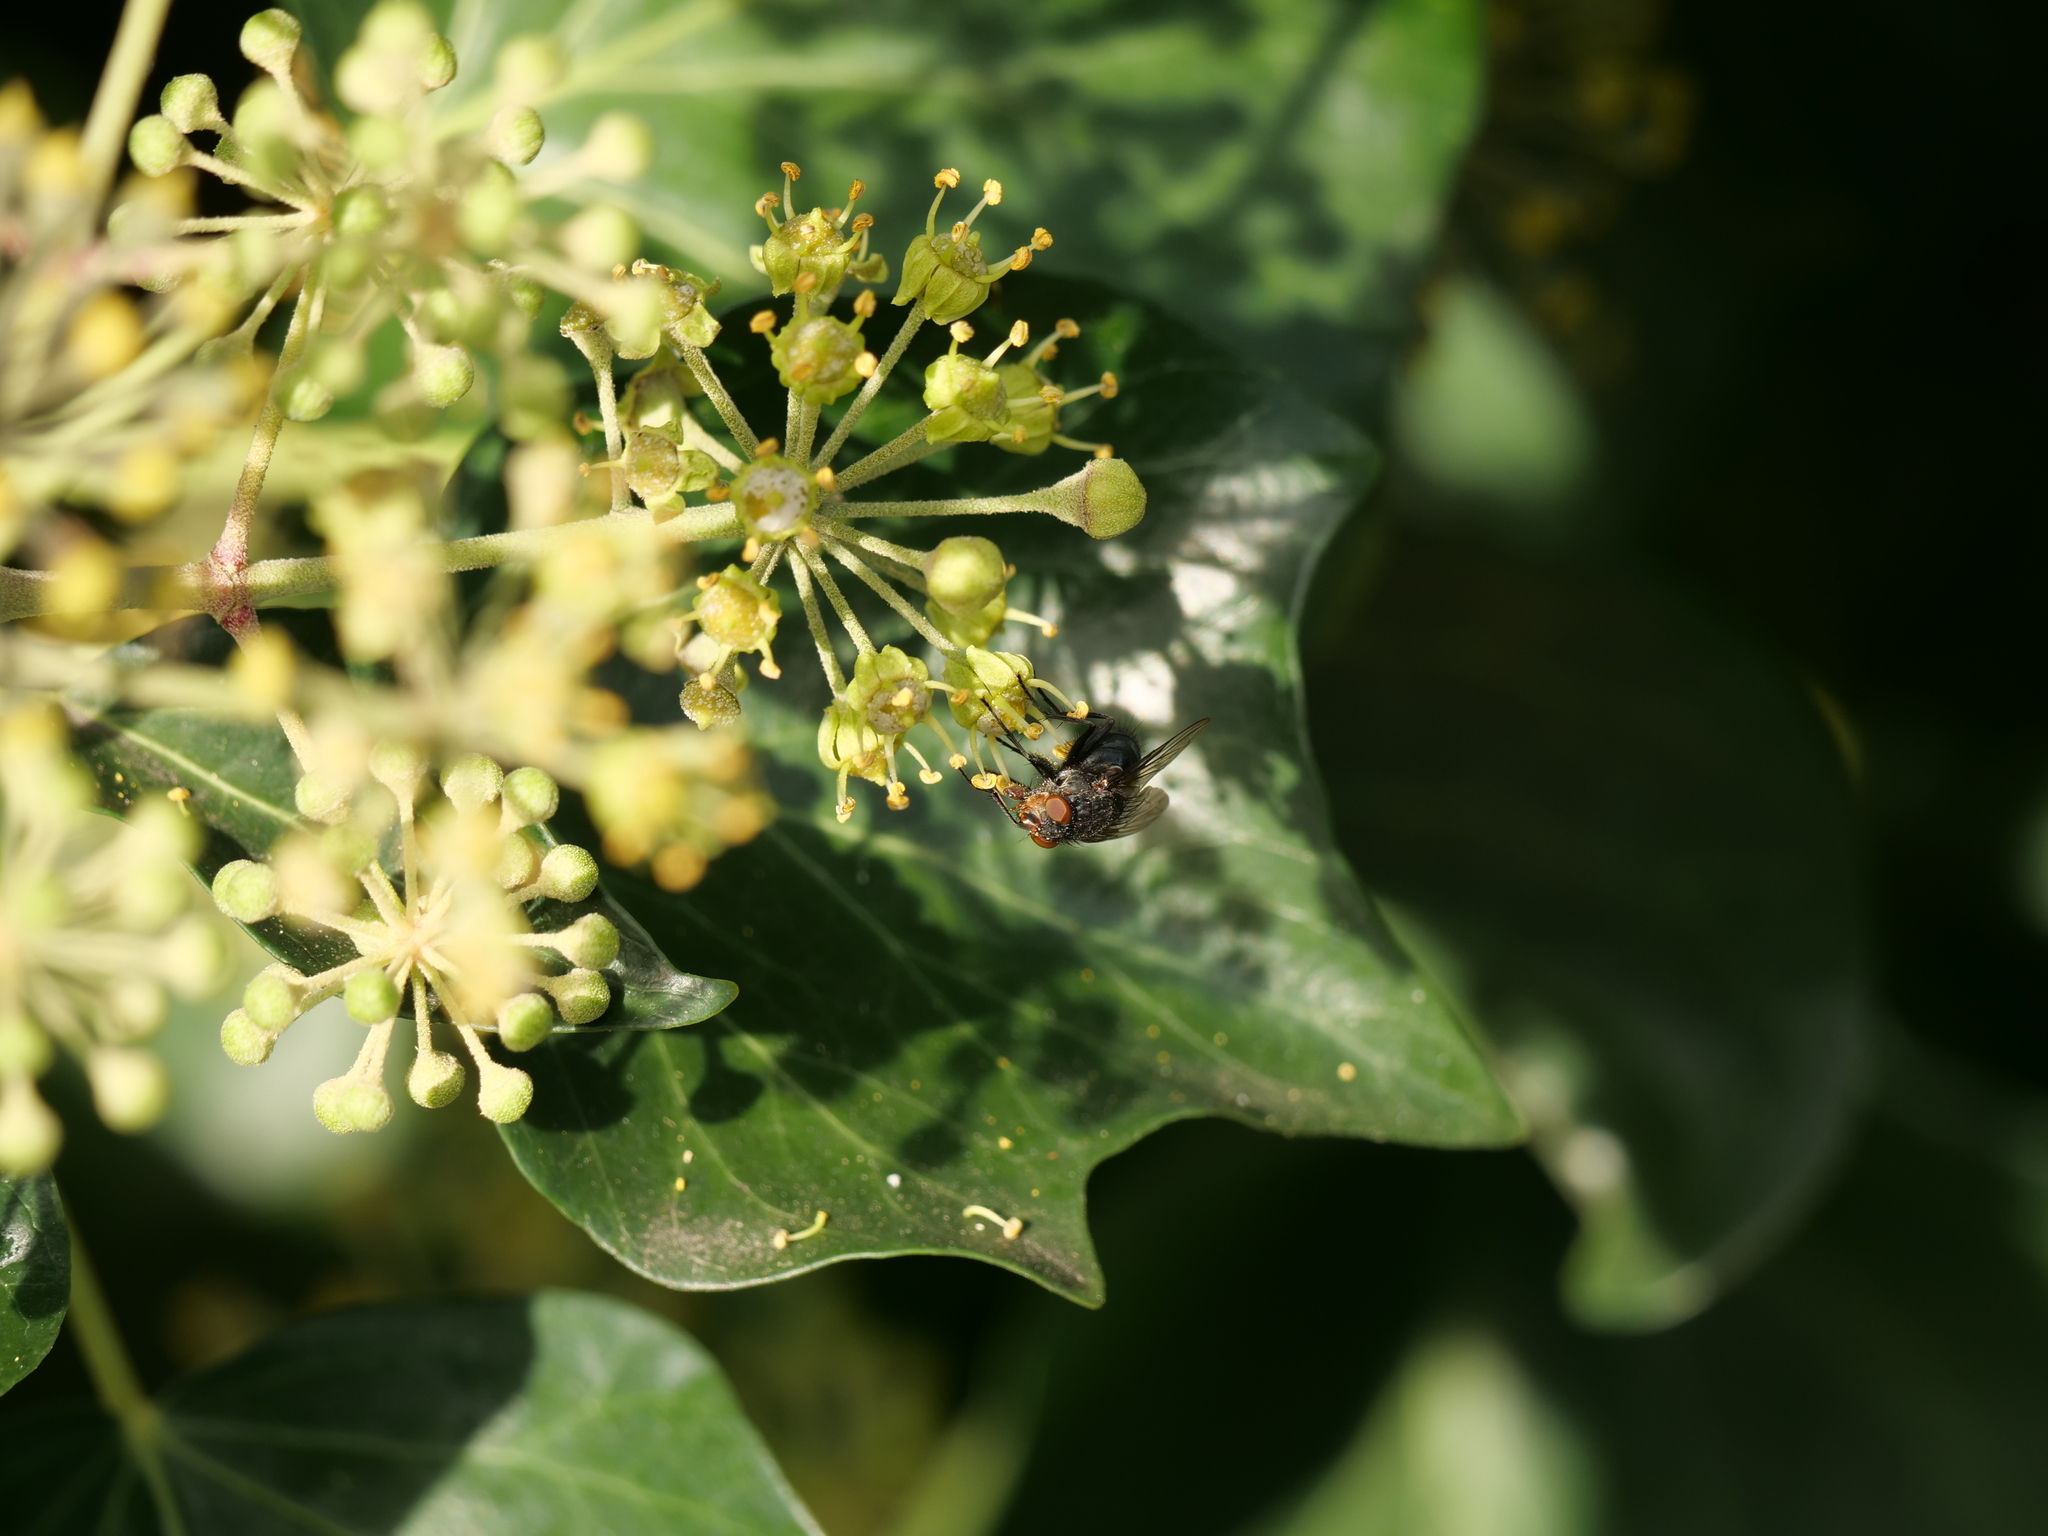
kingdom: Animalia
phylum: Arthropoda
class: Insecta
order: Diptera
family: Calliphoridae
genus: Calliphora
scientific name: Calliphora vicina
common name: Common blow flie
